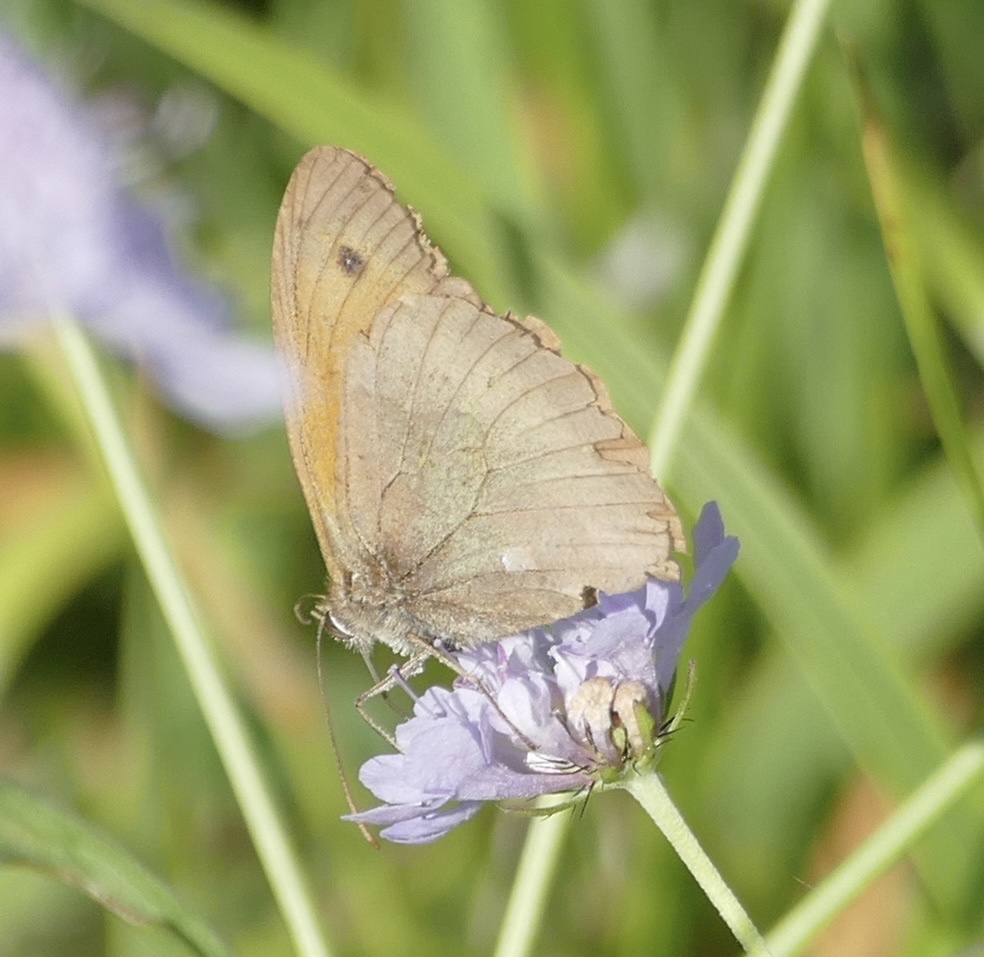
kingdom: Animalia
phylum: Arthropoda
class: Insecta
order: Lepidoptera
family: Nymphalidae
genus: Maniola
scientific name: Maniola jurtina
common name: Meadow brown
